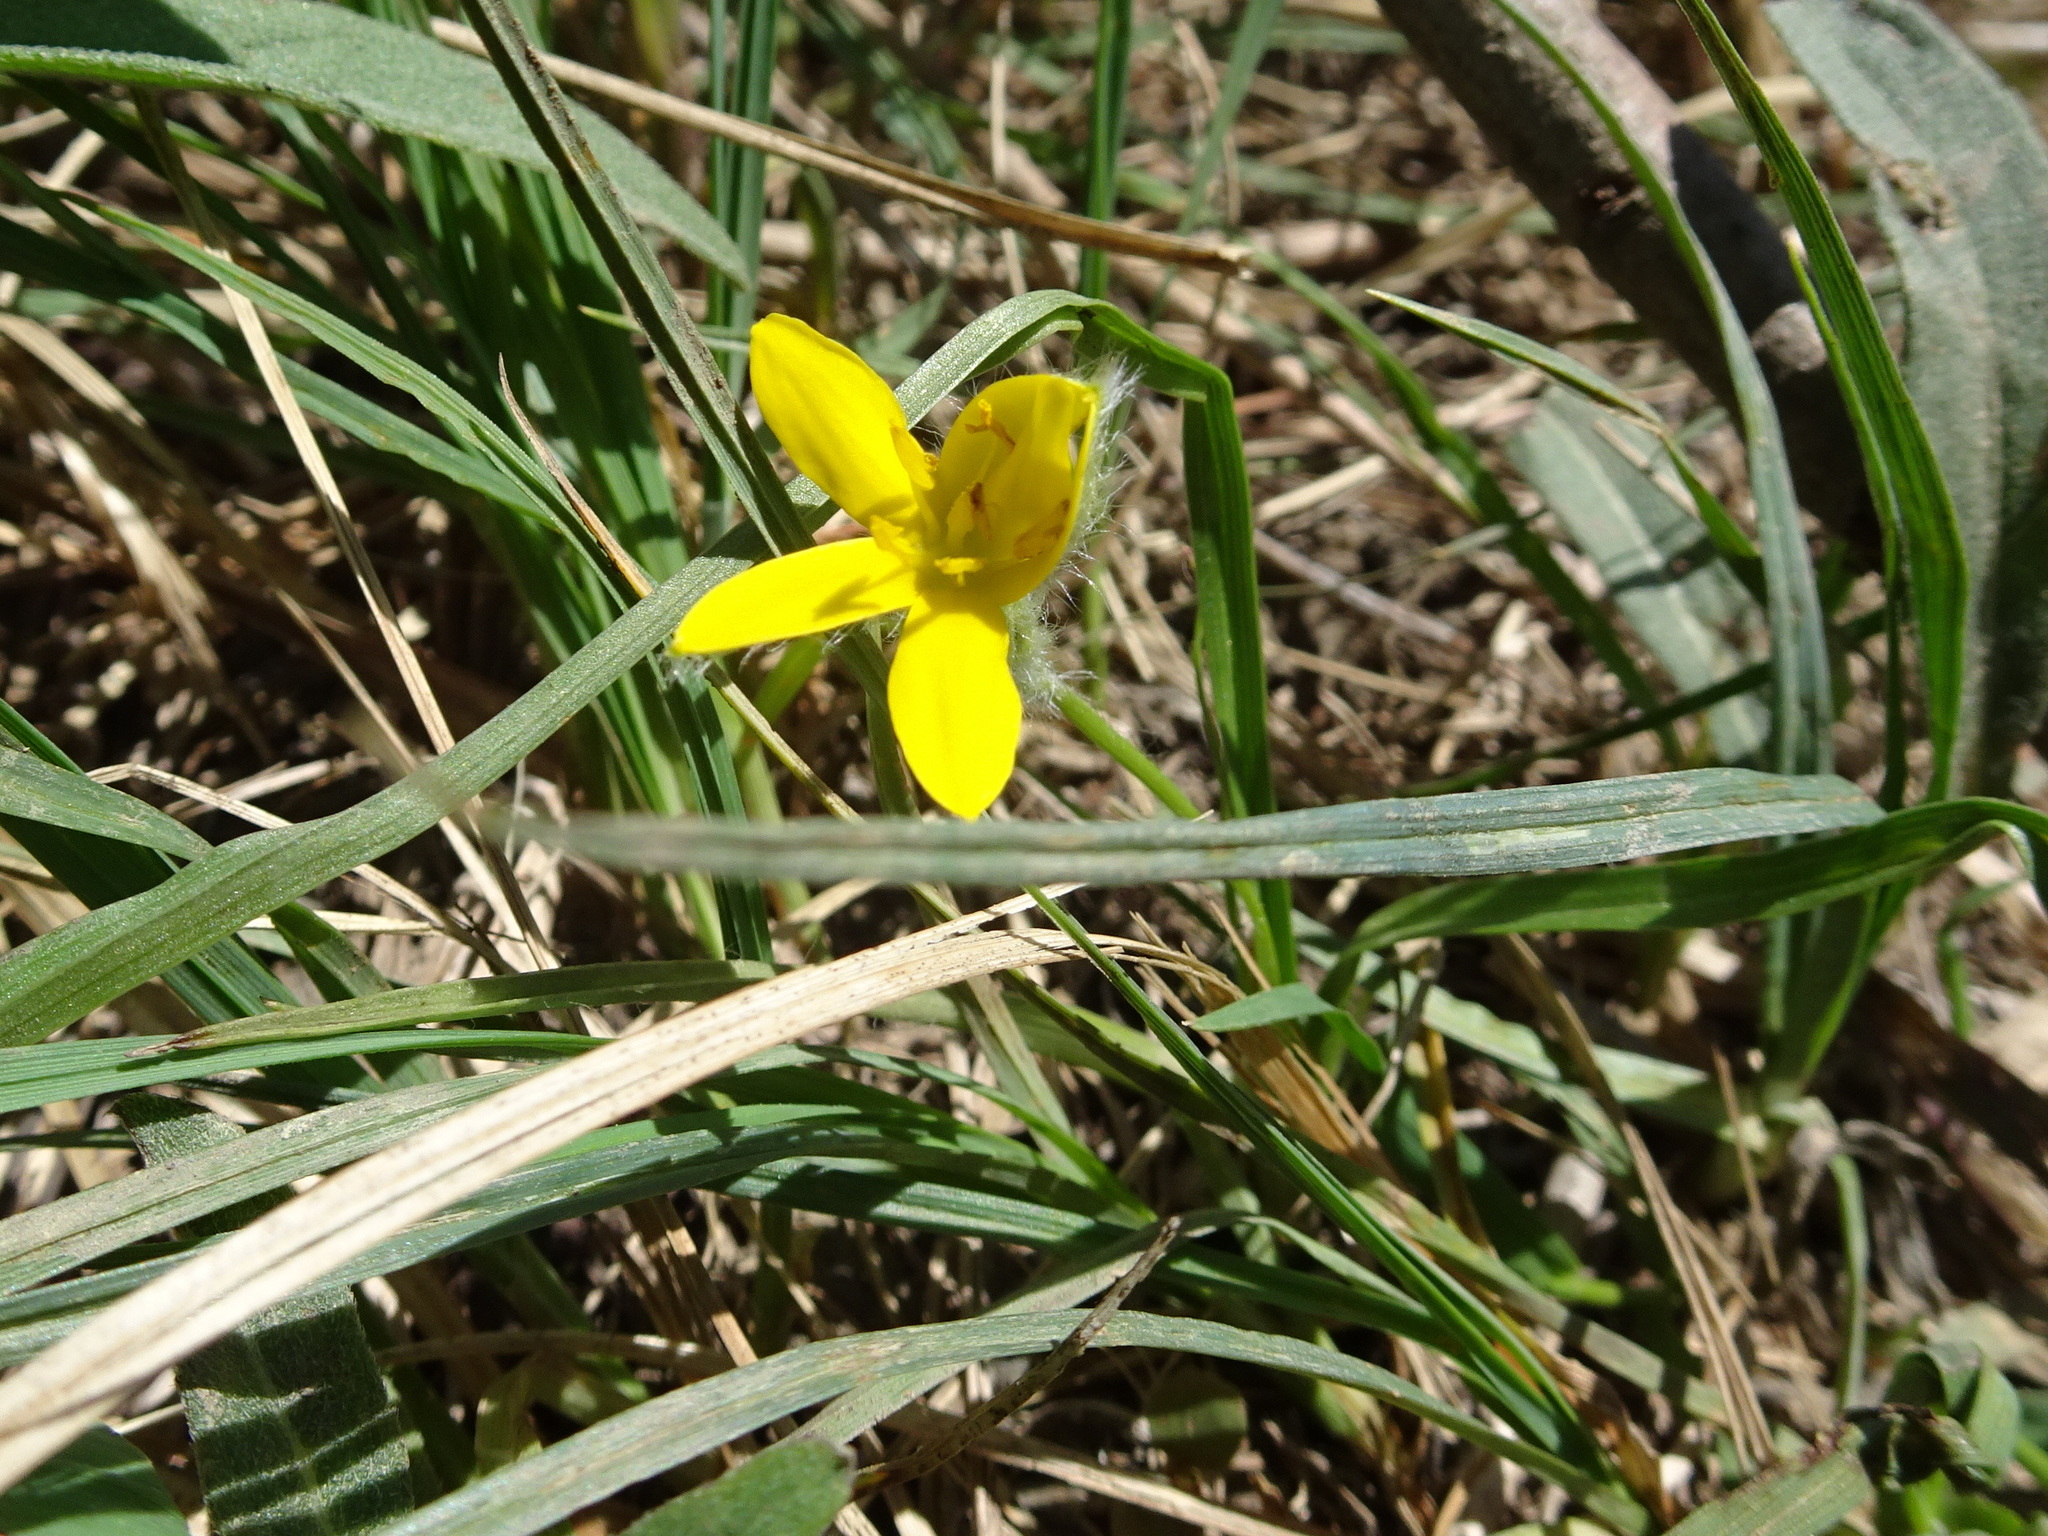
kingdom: Plantae
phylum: Tracheophyta
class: Liliopsida
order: Asparagales
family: Hypoxidaceae
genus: Hypoxis
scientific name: Hypoxis hirsuta
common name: Common goldstar
